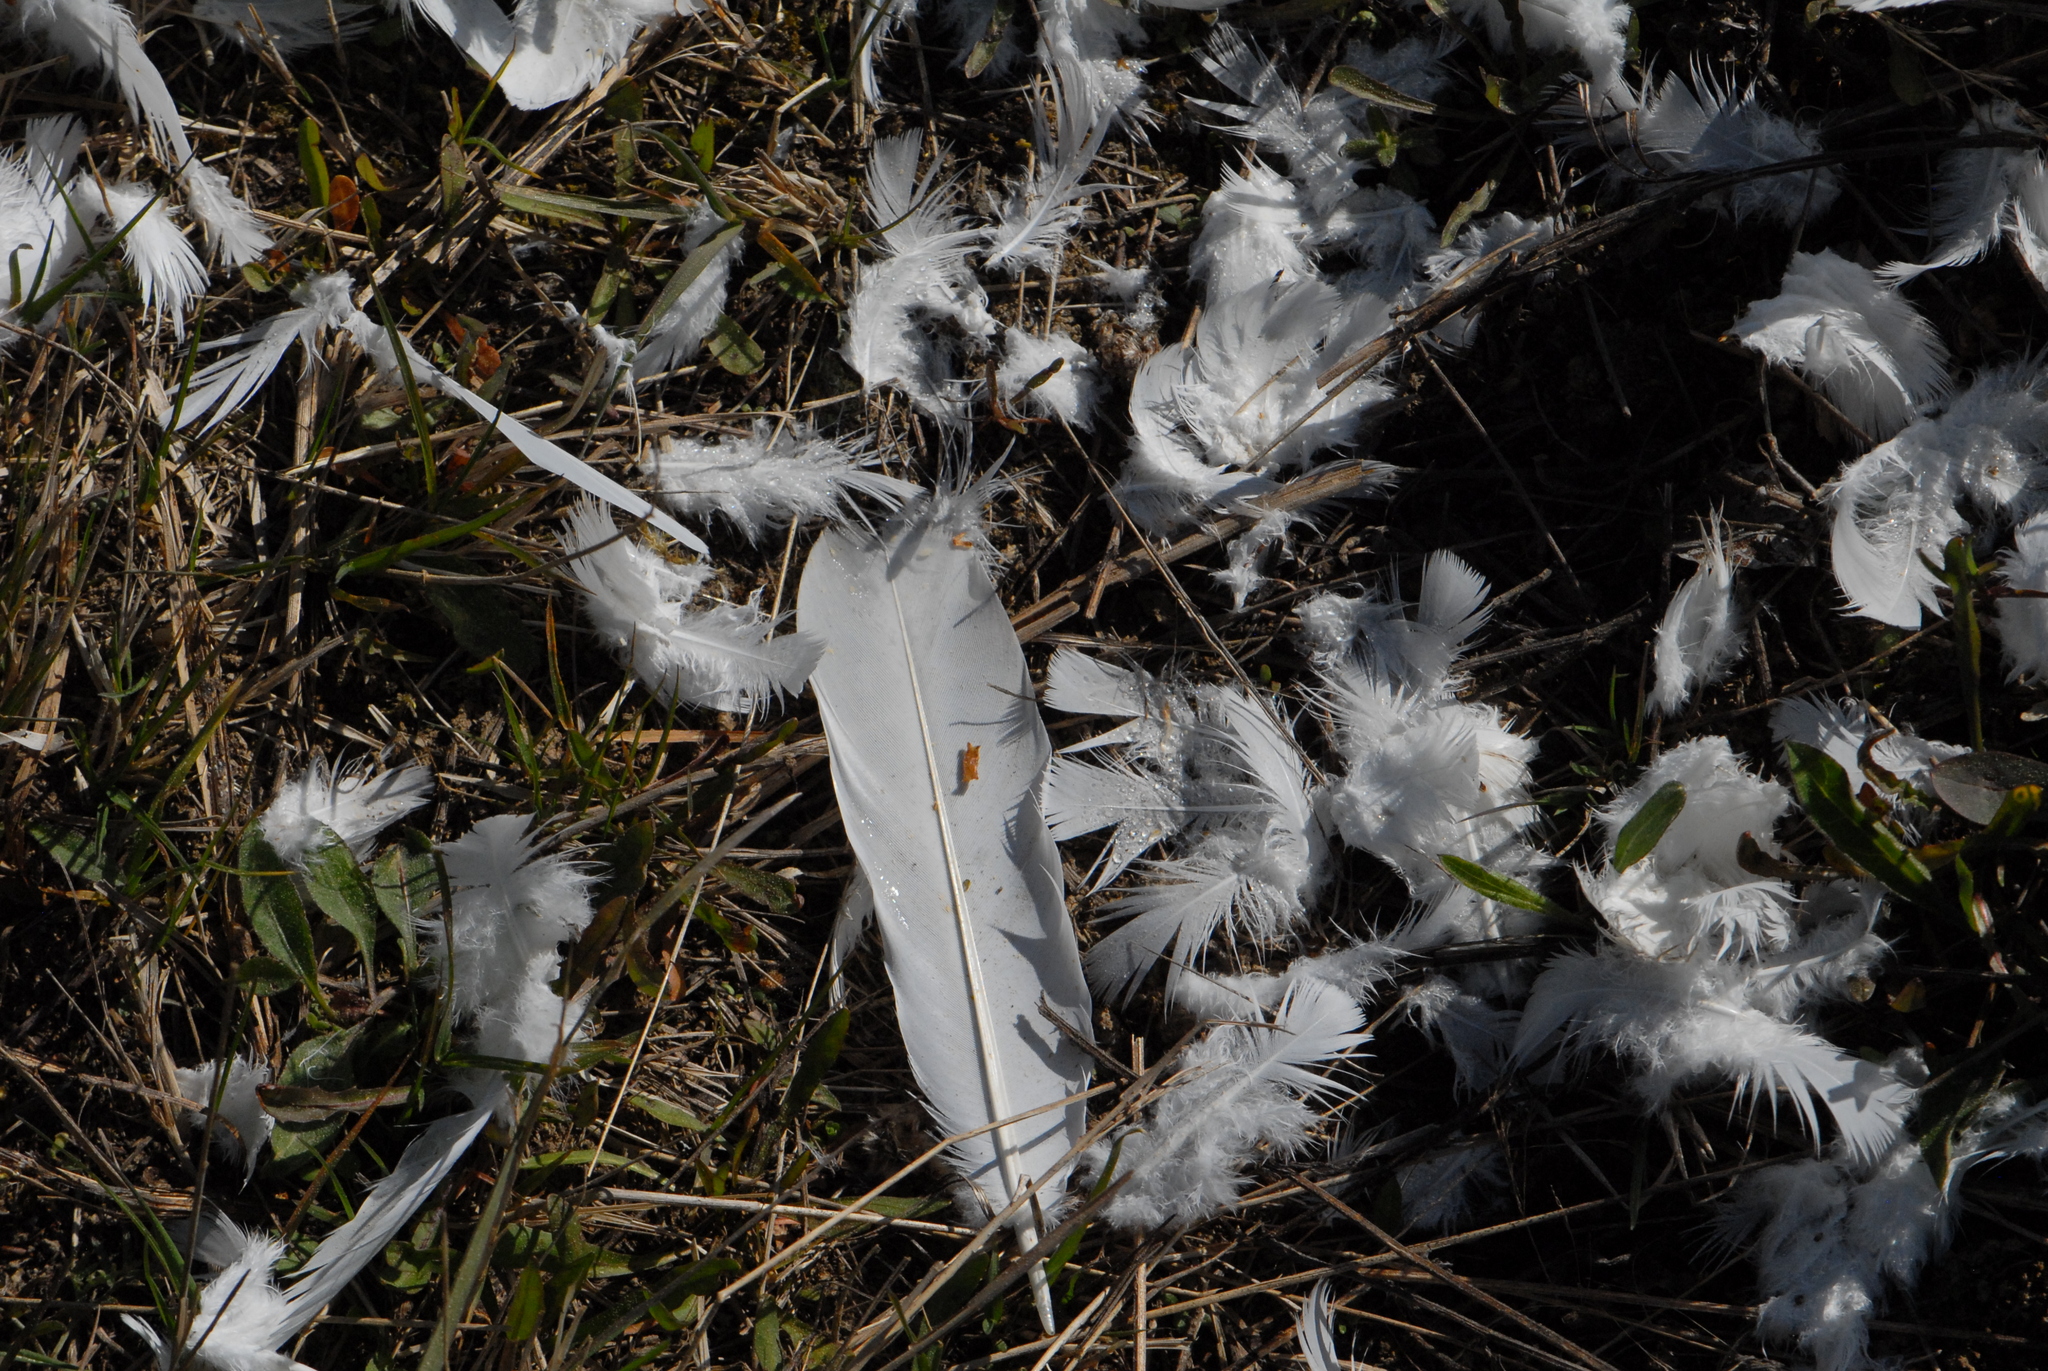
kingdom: Animalia
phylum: Chordata
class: Aves
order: Columbiformes
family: Columbidae
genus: Columba
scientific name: Columba livia
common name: Rock pigeon
